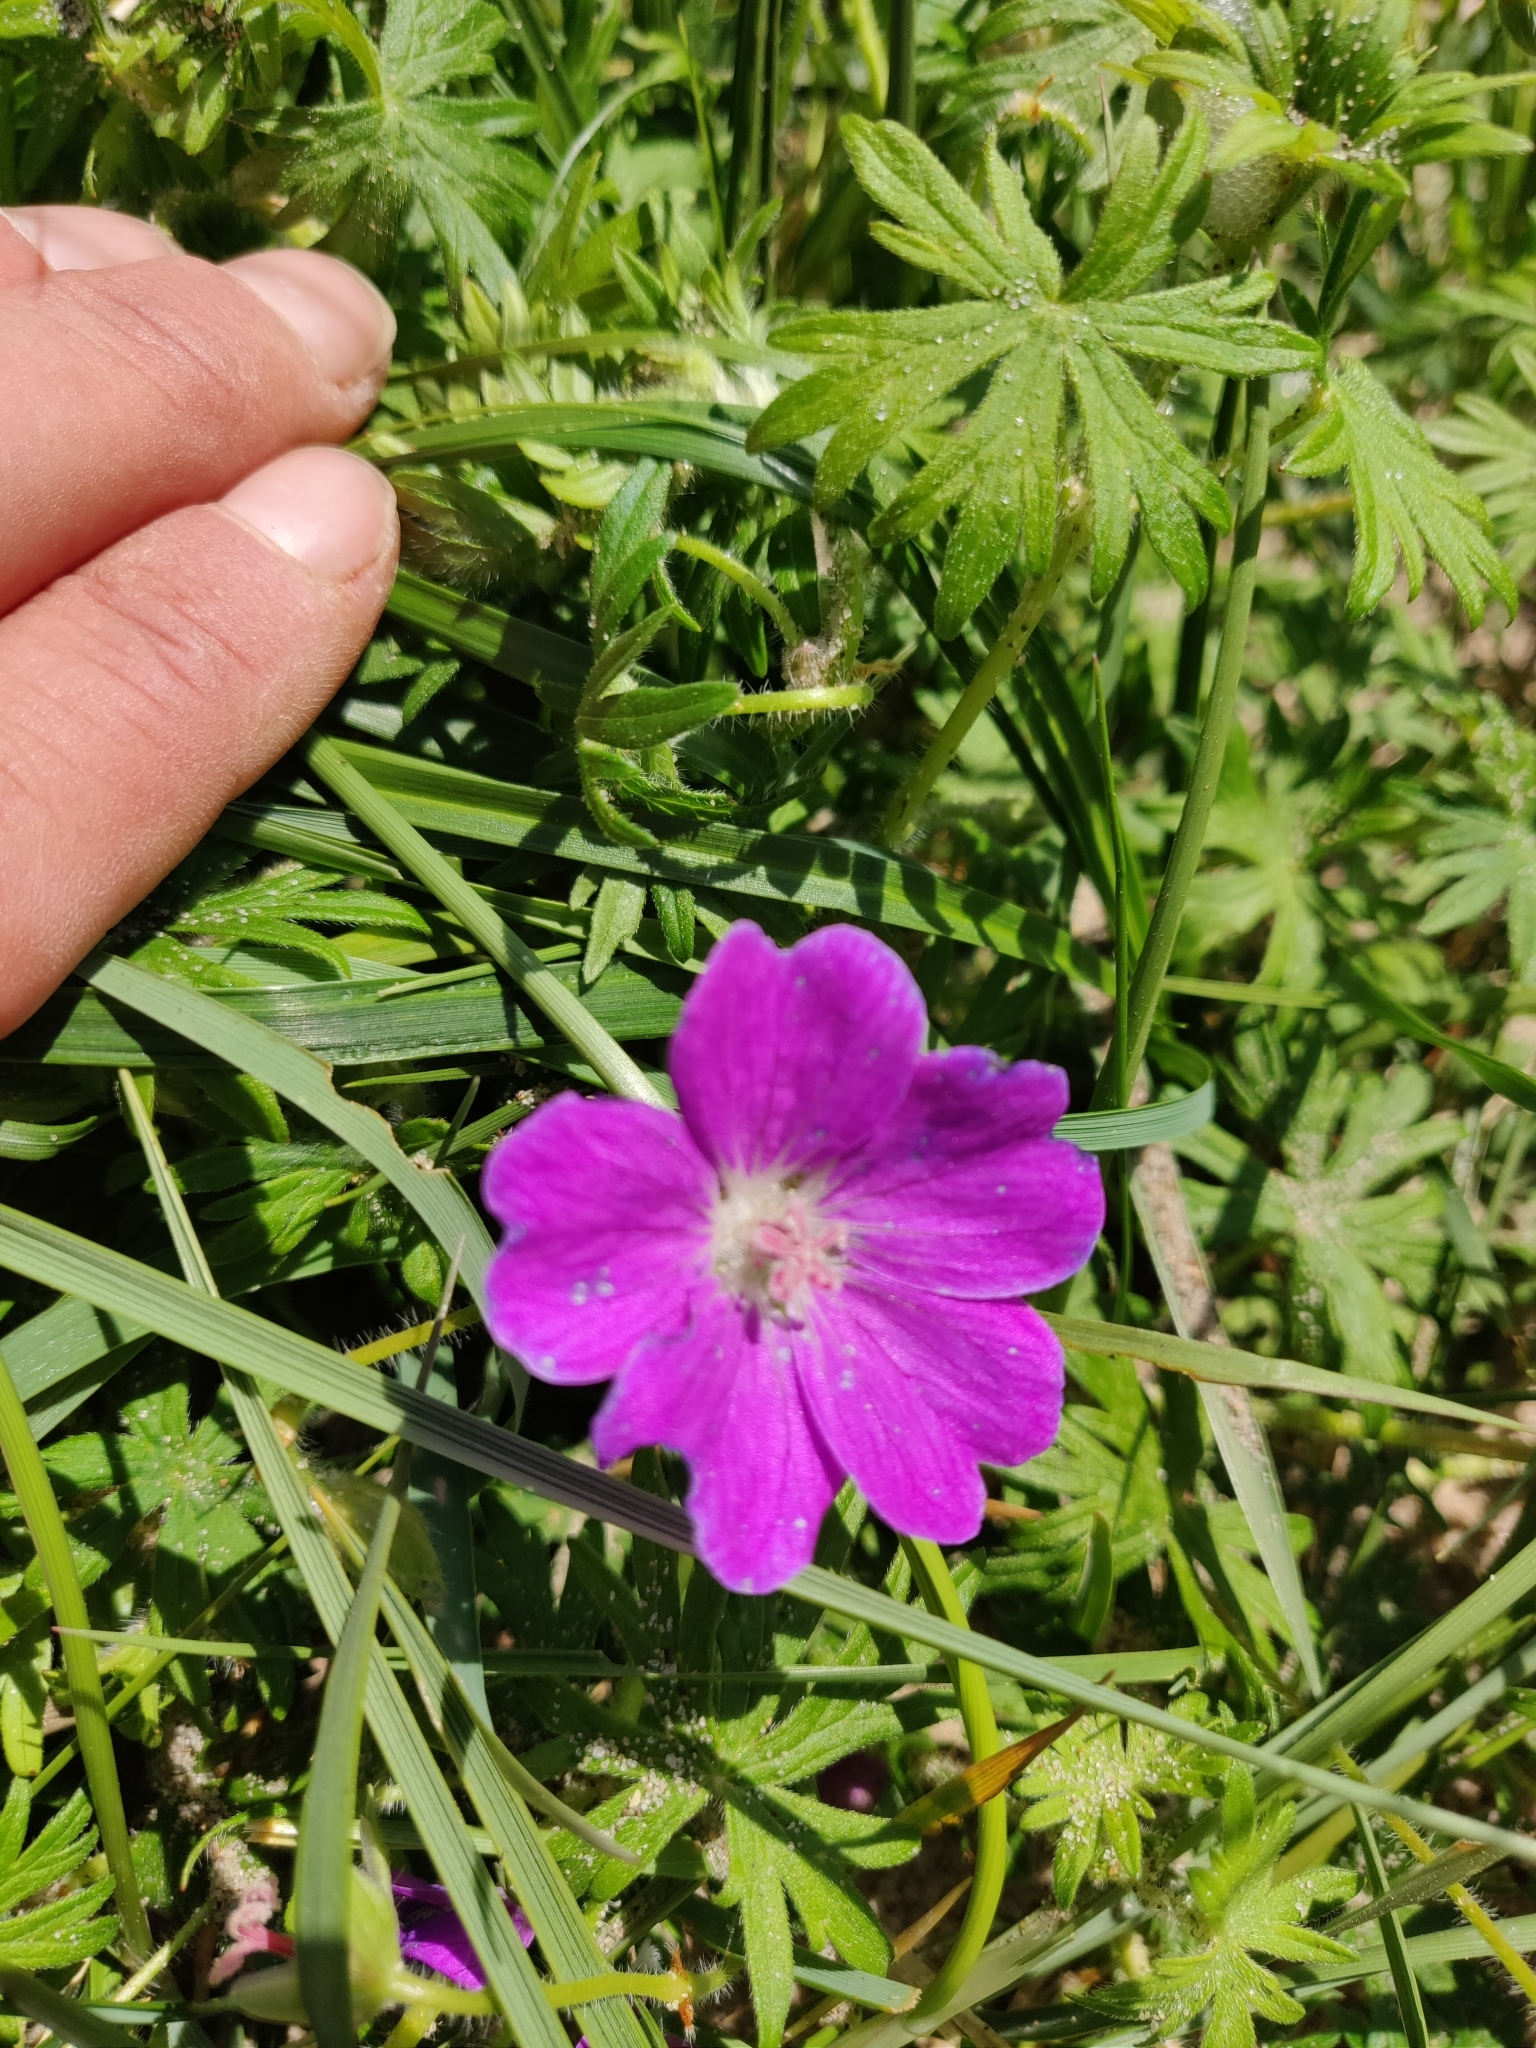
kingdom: Plantae
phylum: Tracheophyta
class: Magnoliopsida
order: Geraniales
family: Geraniaceae
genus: Geranium
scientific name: Geranium sanguineum
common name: Bloody crane's-bill
